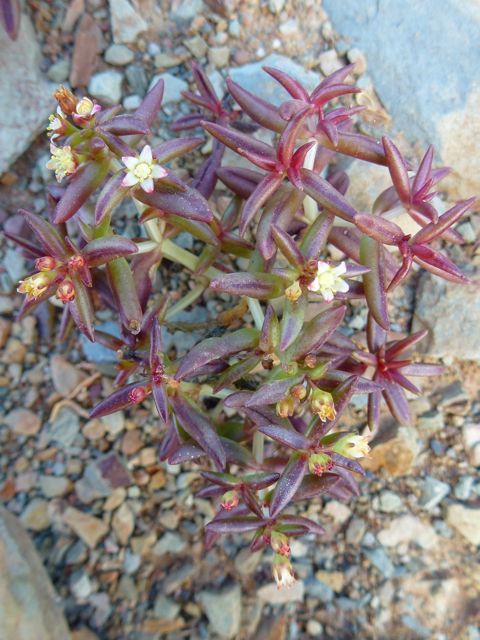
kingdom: Plantae
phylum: Tracheophyta
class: Magnoliopsida
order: Saxifragales
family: Crassulaceae
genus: Crassula
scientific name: Crassula expansa
